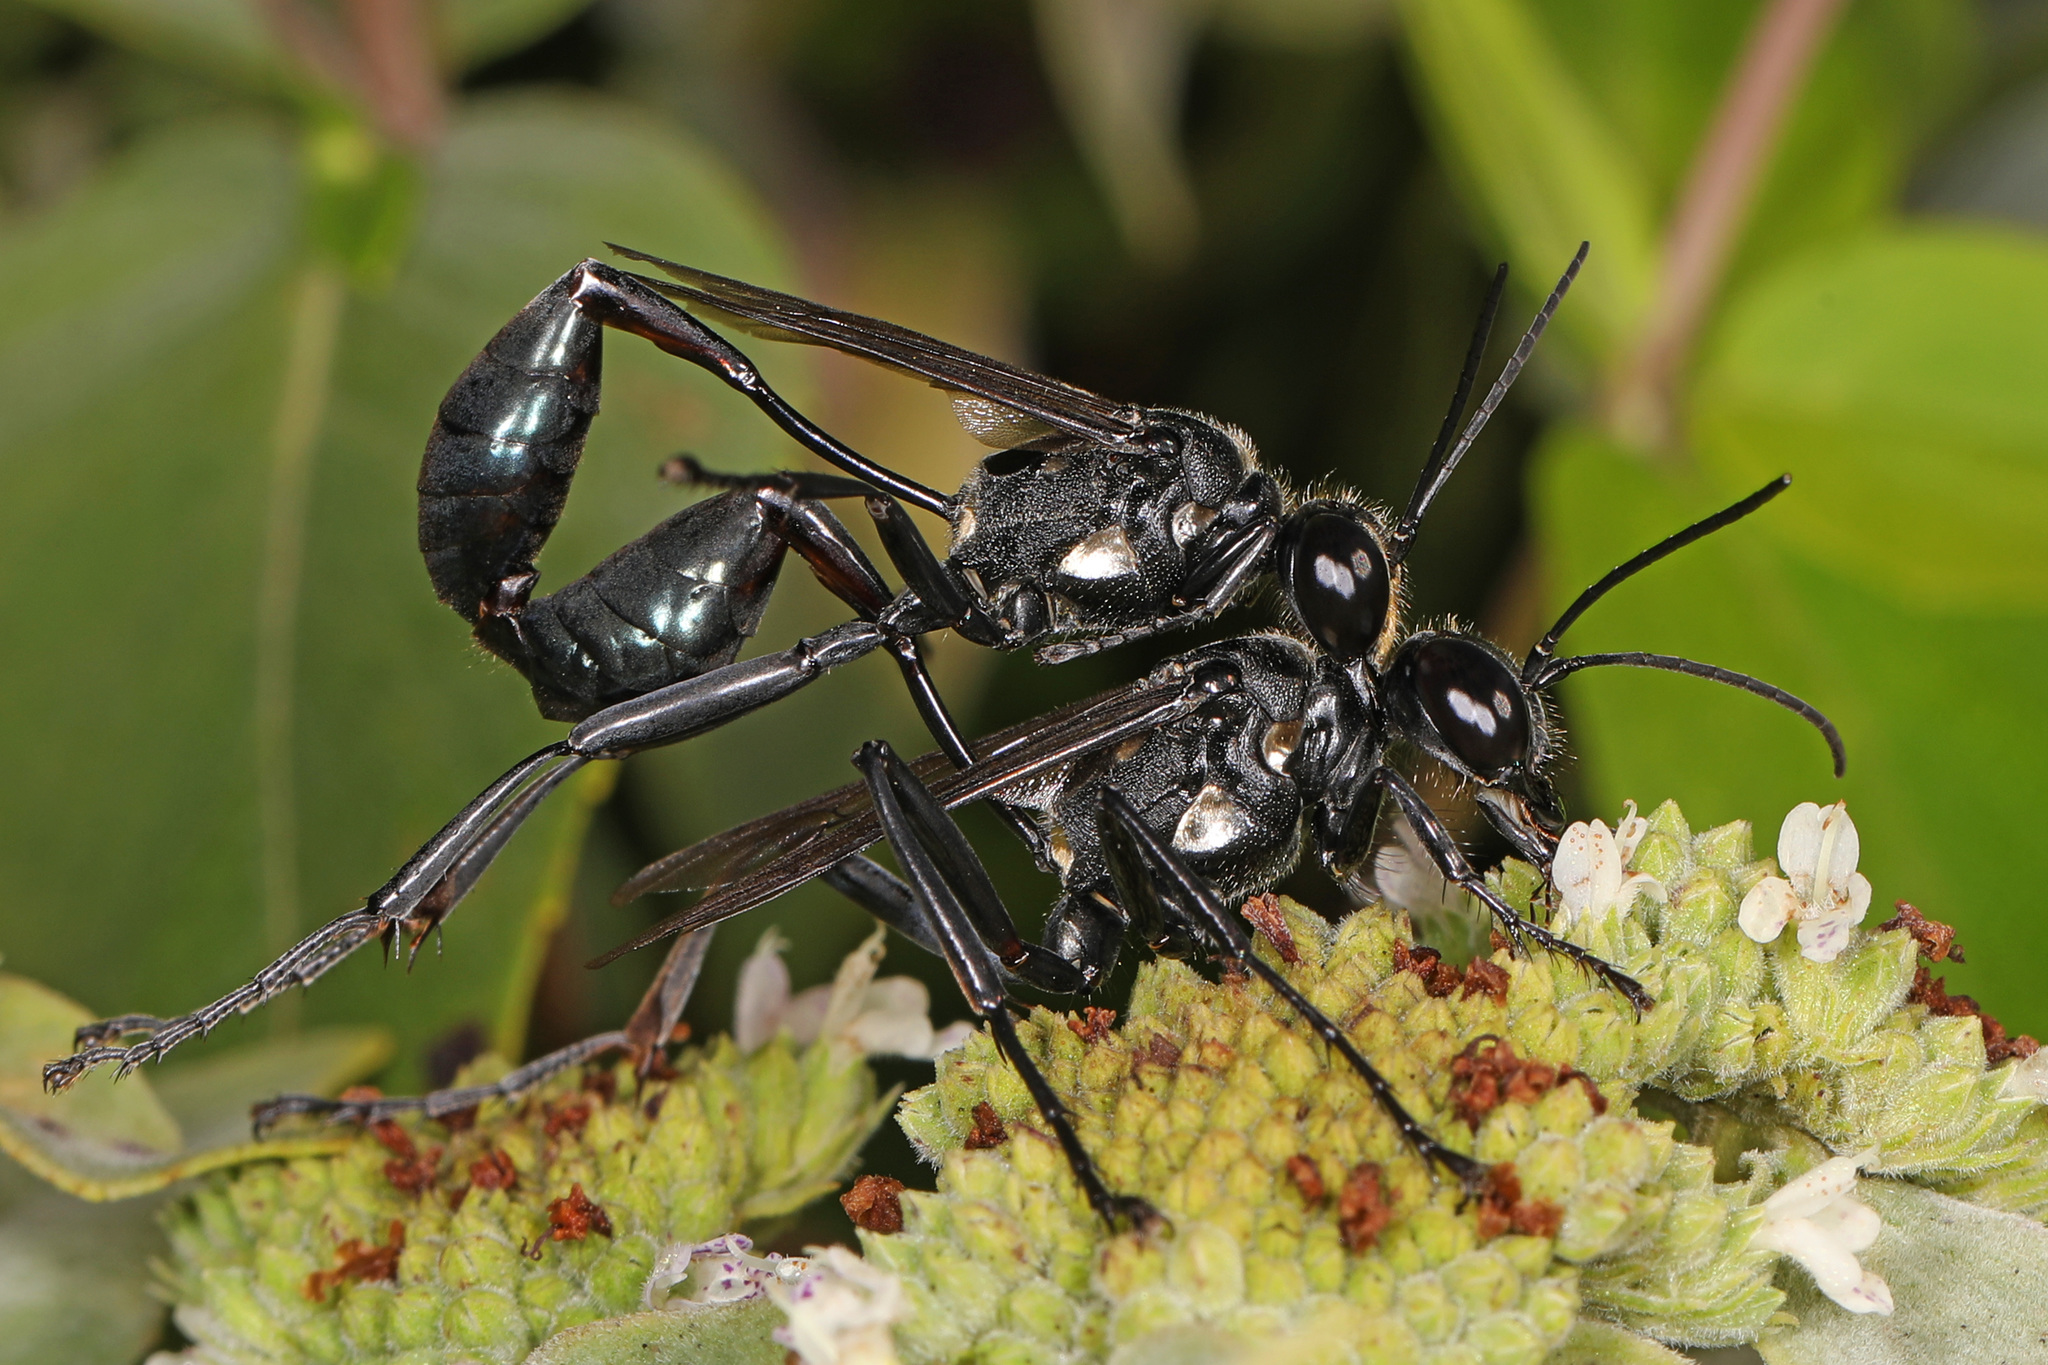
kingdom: Animalia
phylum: Arthropoda
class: Insecta
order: Hymenoptera
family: Sphecidae
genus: Eremnophila
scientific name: Eremnophila aureonotata
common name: Gold-marked thread-waisted wasp
